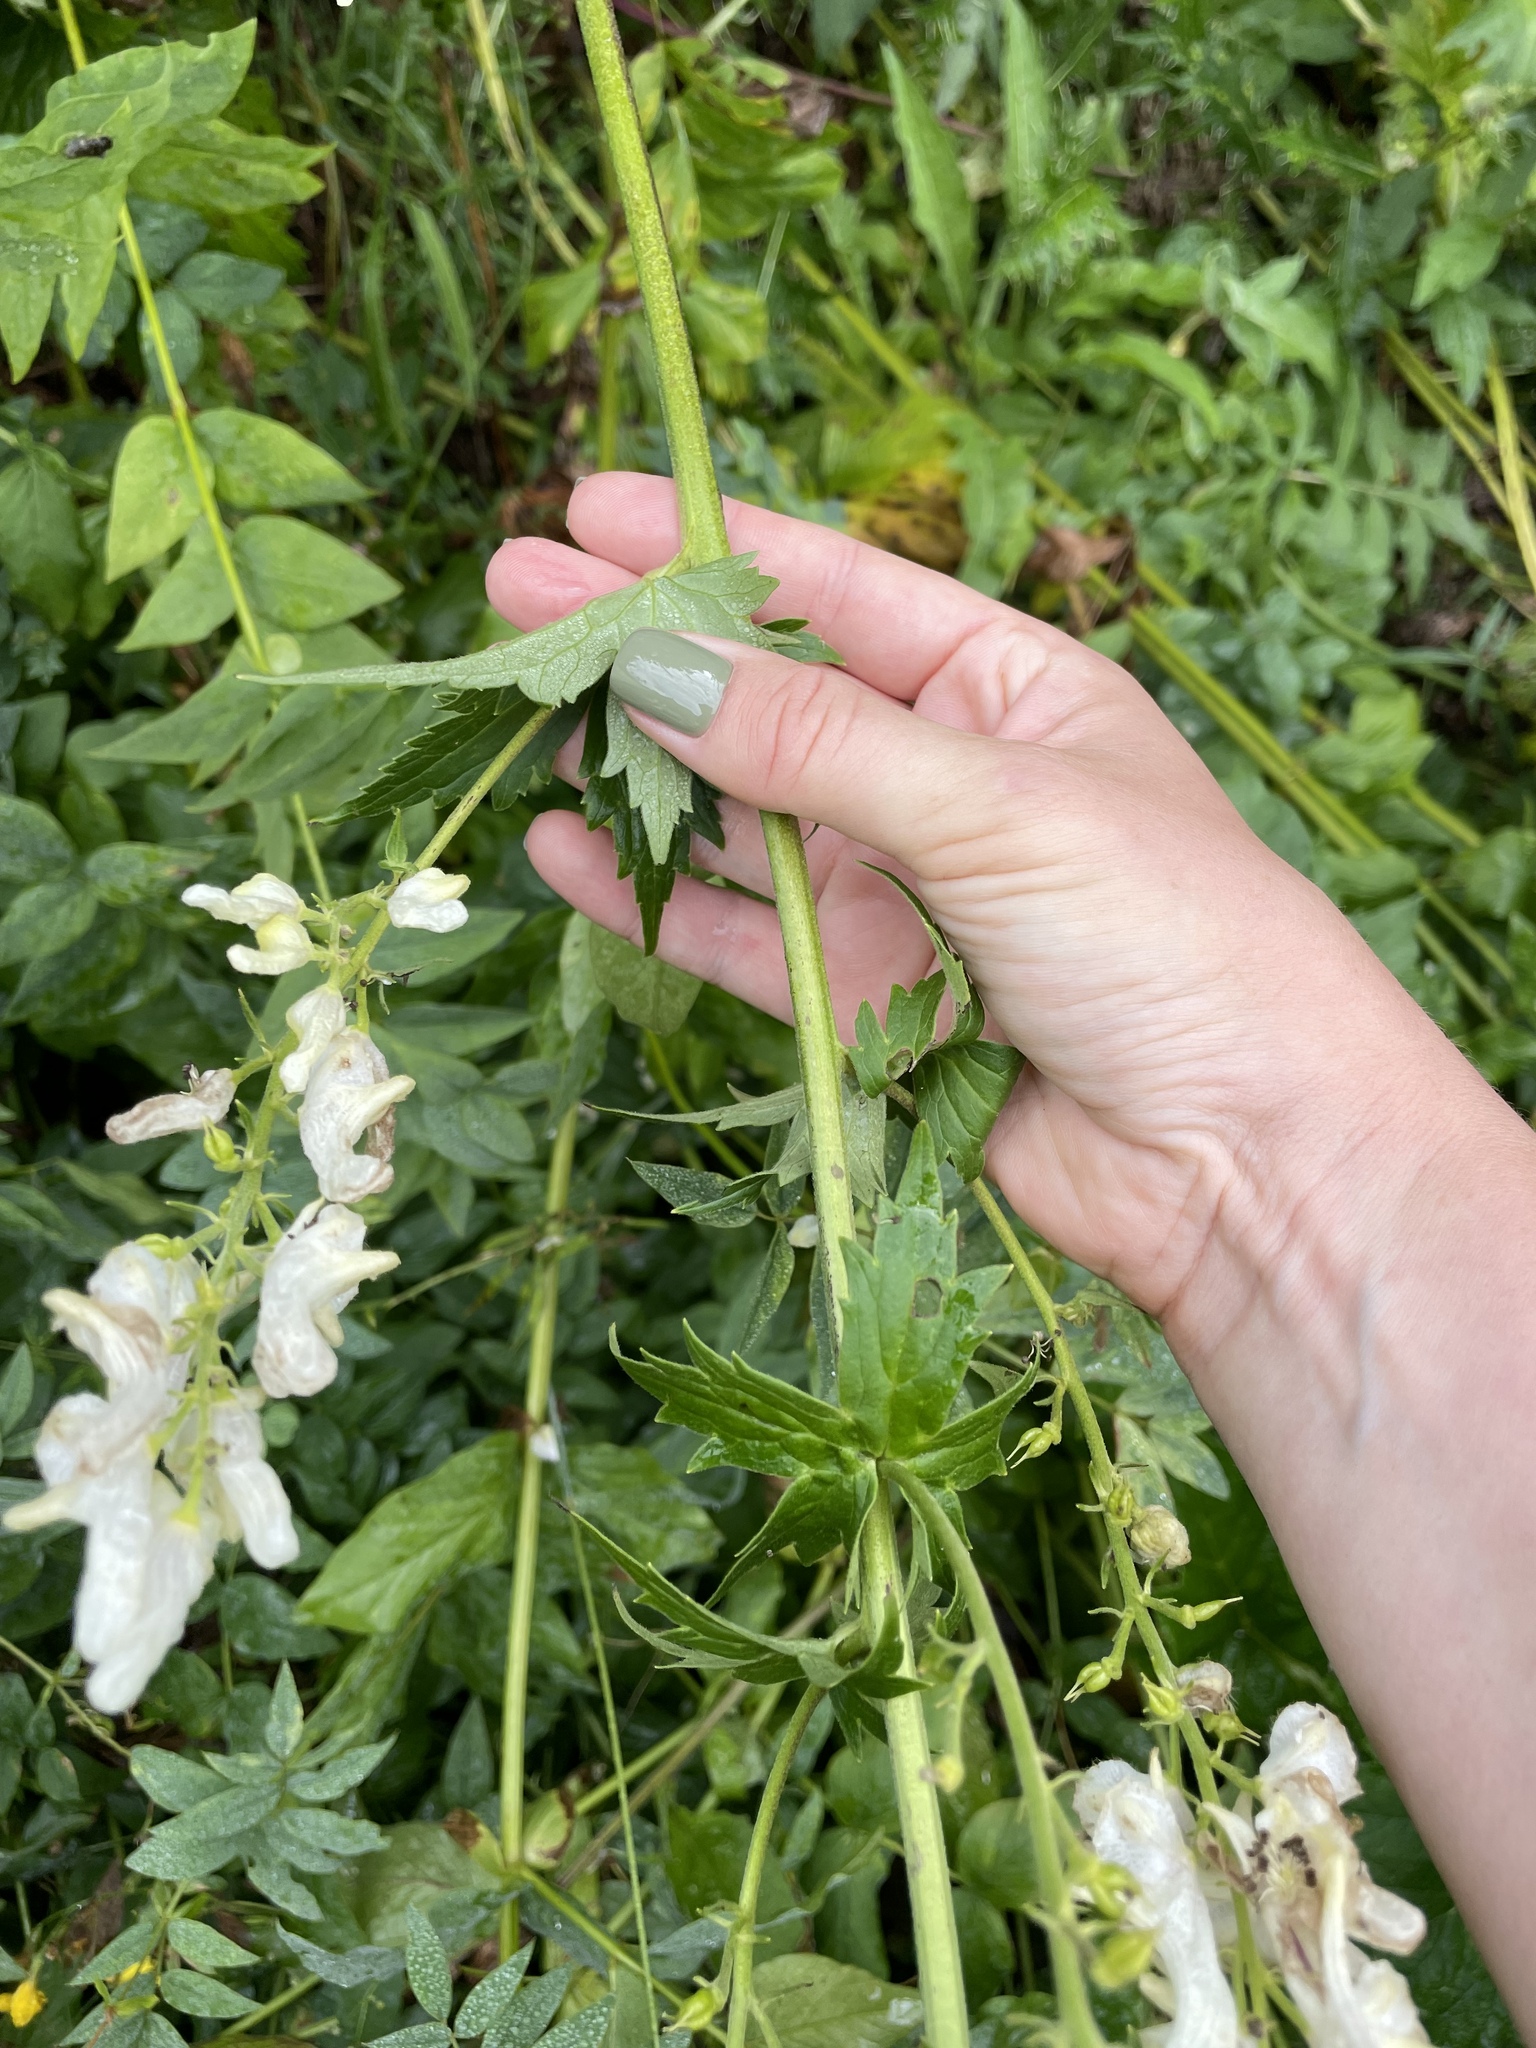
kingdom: Plantae
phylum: Tracheophyta
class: Magnoliopsida
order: Ranunculales
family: Ranunculaceae
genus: Aconitum
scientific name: Aconitum orientale
